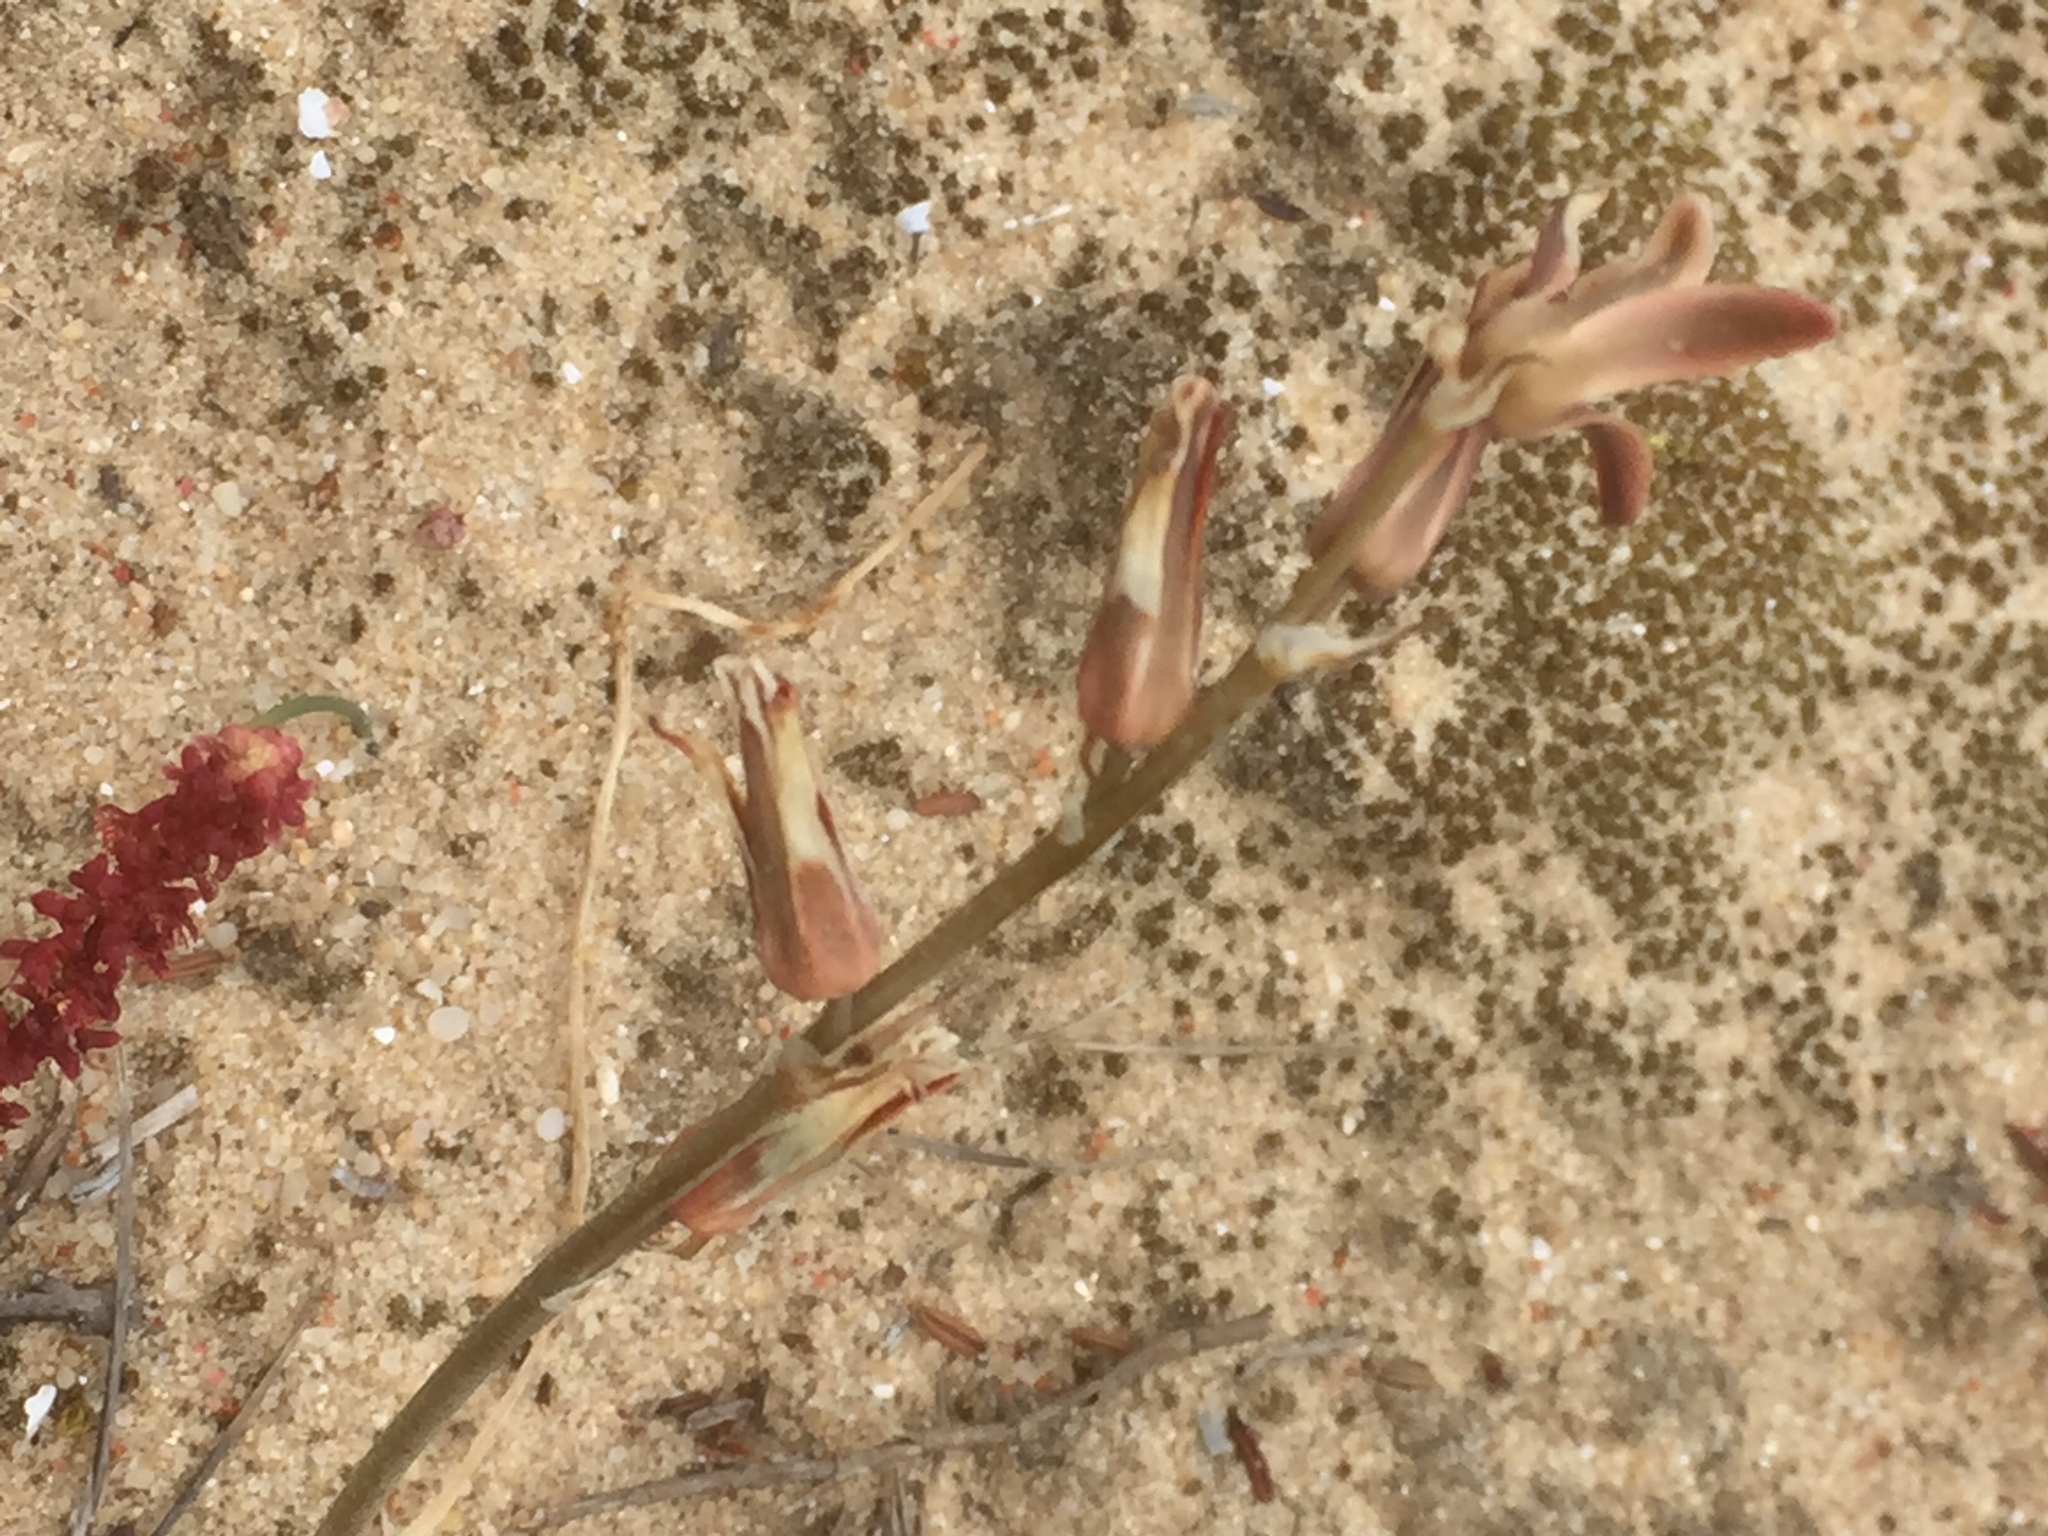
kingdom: Plantae
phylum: Tracheophyta
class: Liliopsida
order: Asparagales
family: Asparagaceae
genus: Dipcadi
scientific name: Dipcadi serotinum
